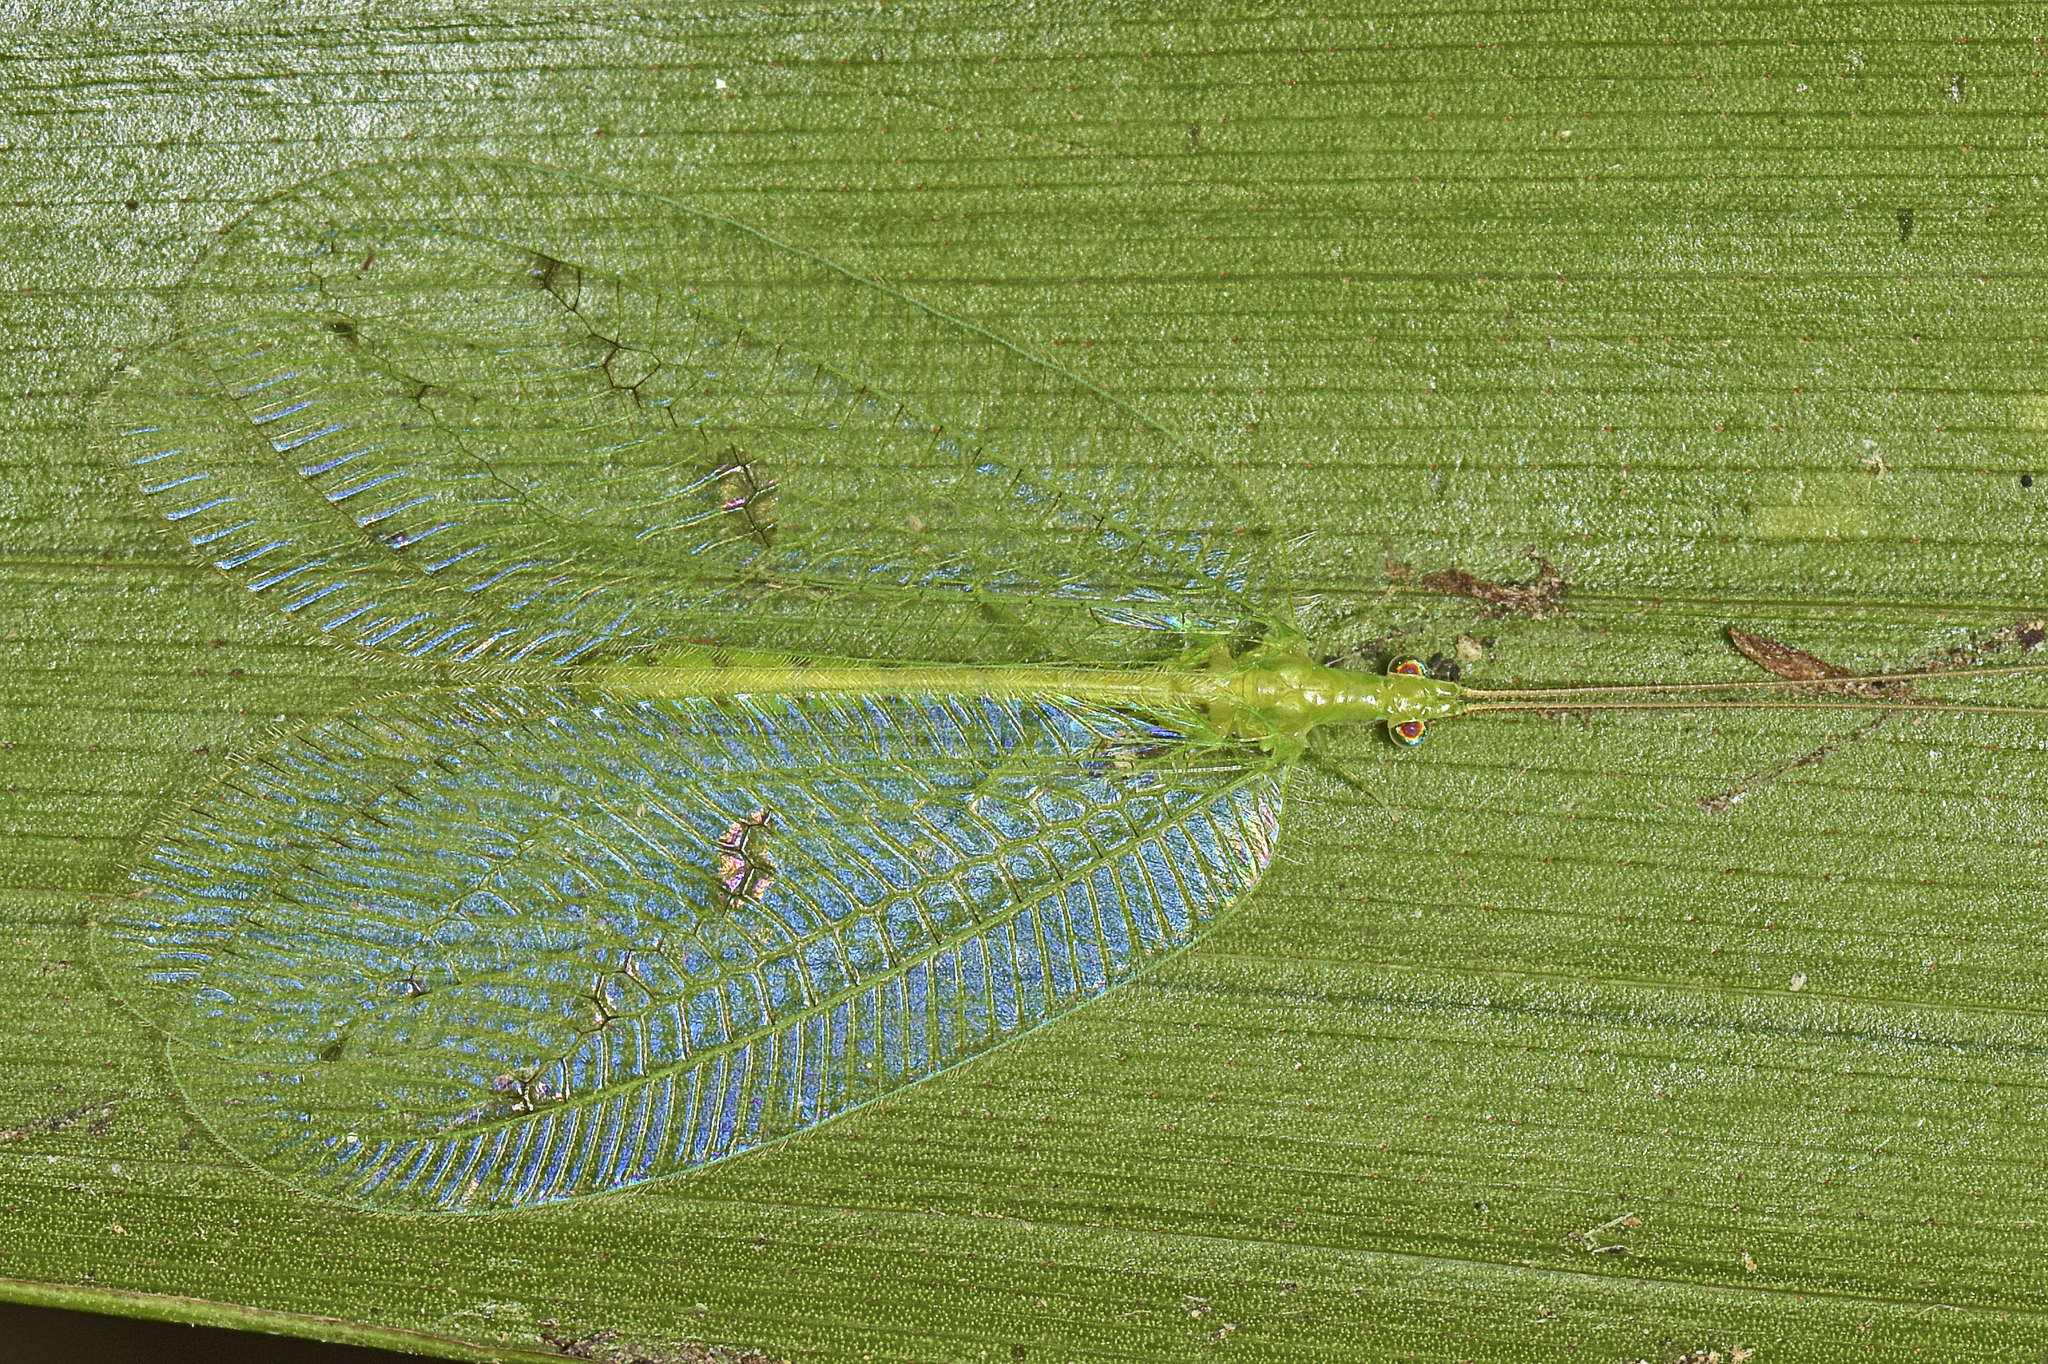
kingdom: Animalia
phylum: Arthropoda
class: Insecta
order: Neuroptera
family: Chrysopidae
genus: Apochrysa
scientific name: Apochrysa lutea
